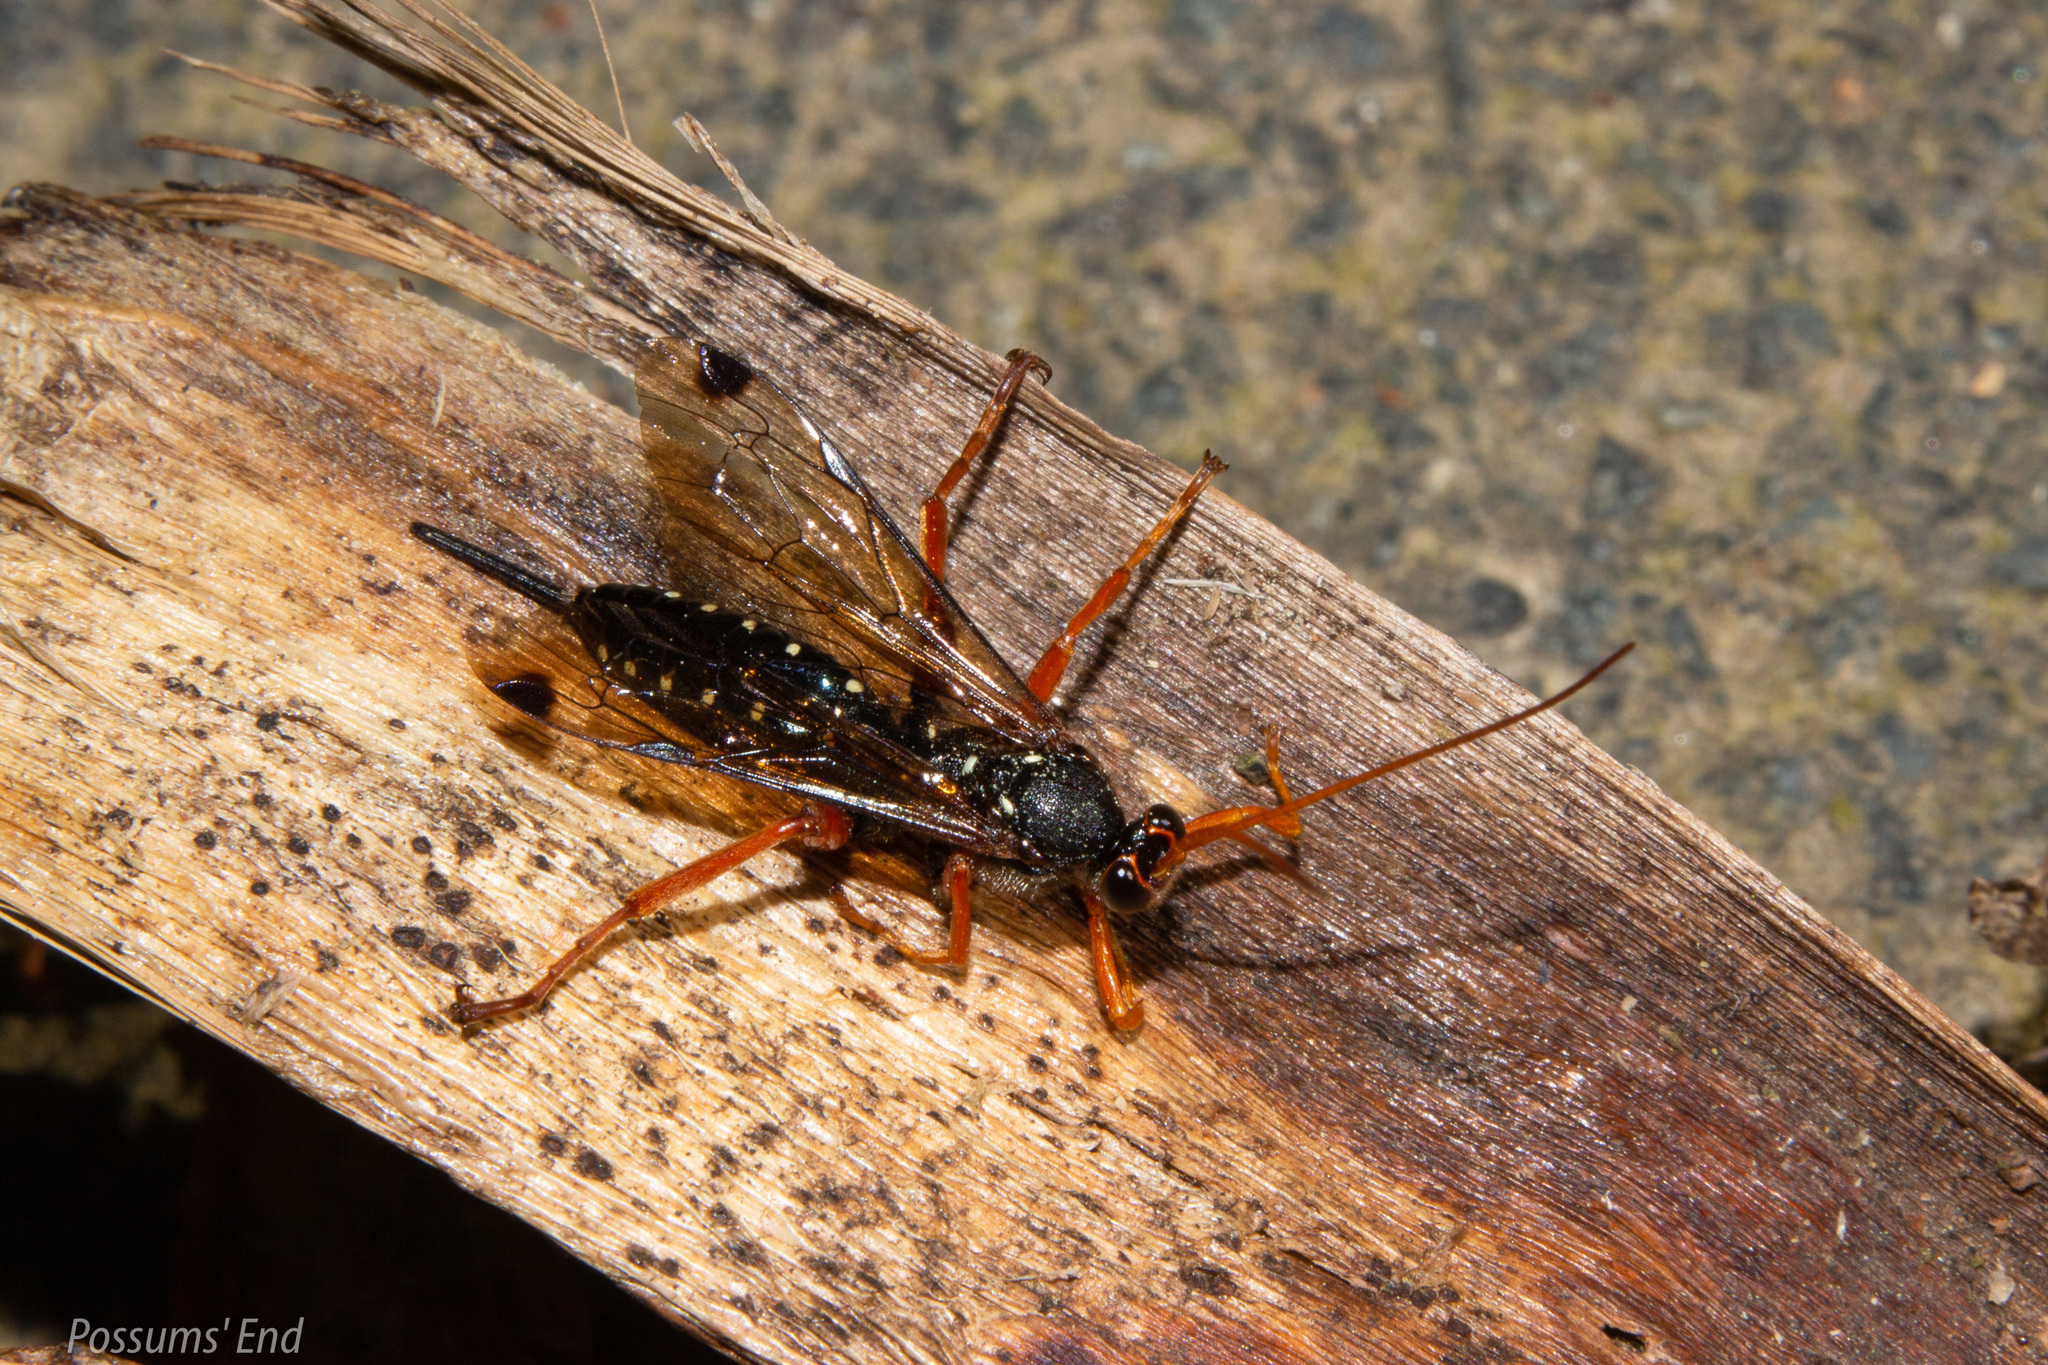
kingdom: Animalia
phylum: Arthropoda
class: Insecta
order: Hymenoptera
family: Ichneumonidae
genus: Echthromorpha
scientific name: Echthromorpha intricatoria
